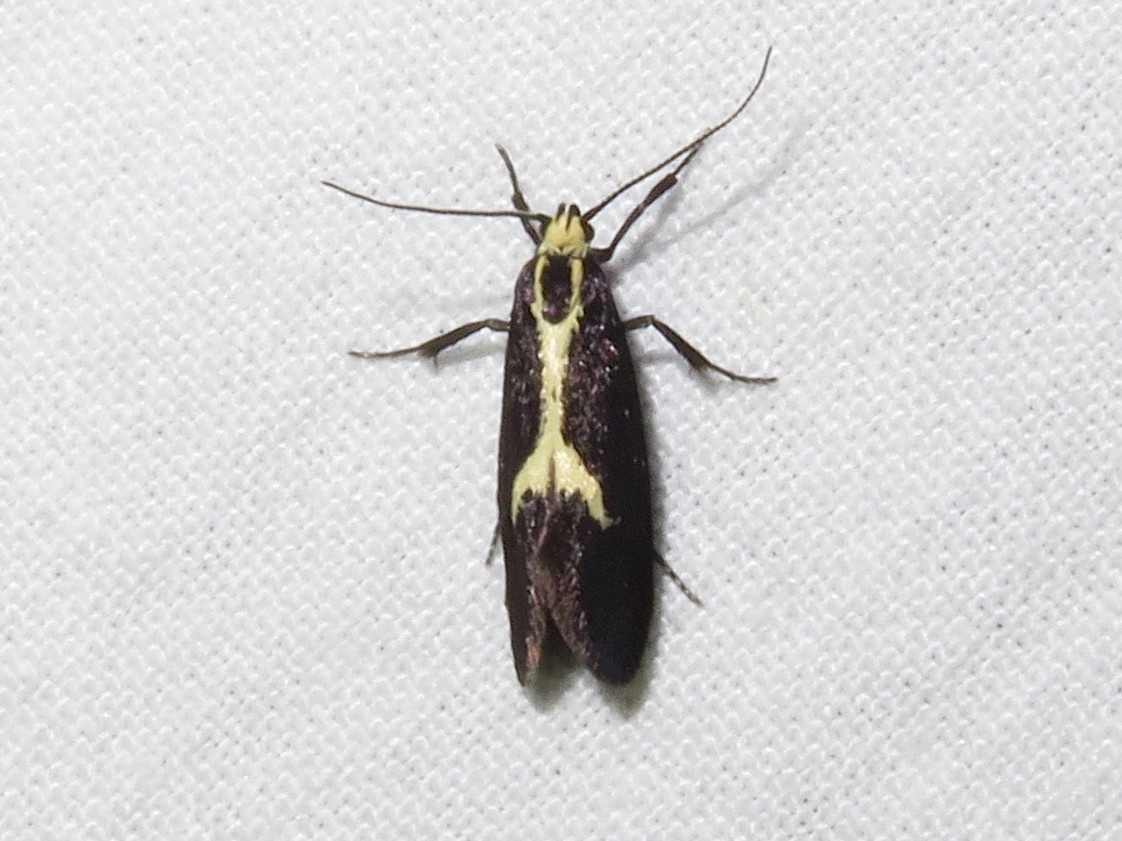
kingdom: Animalia
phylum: Arthropoda
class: Insecta
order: Lepidoptera
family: Oecophoridae
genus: Polix
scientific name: Polix coloradella
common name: Skunk moth
